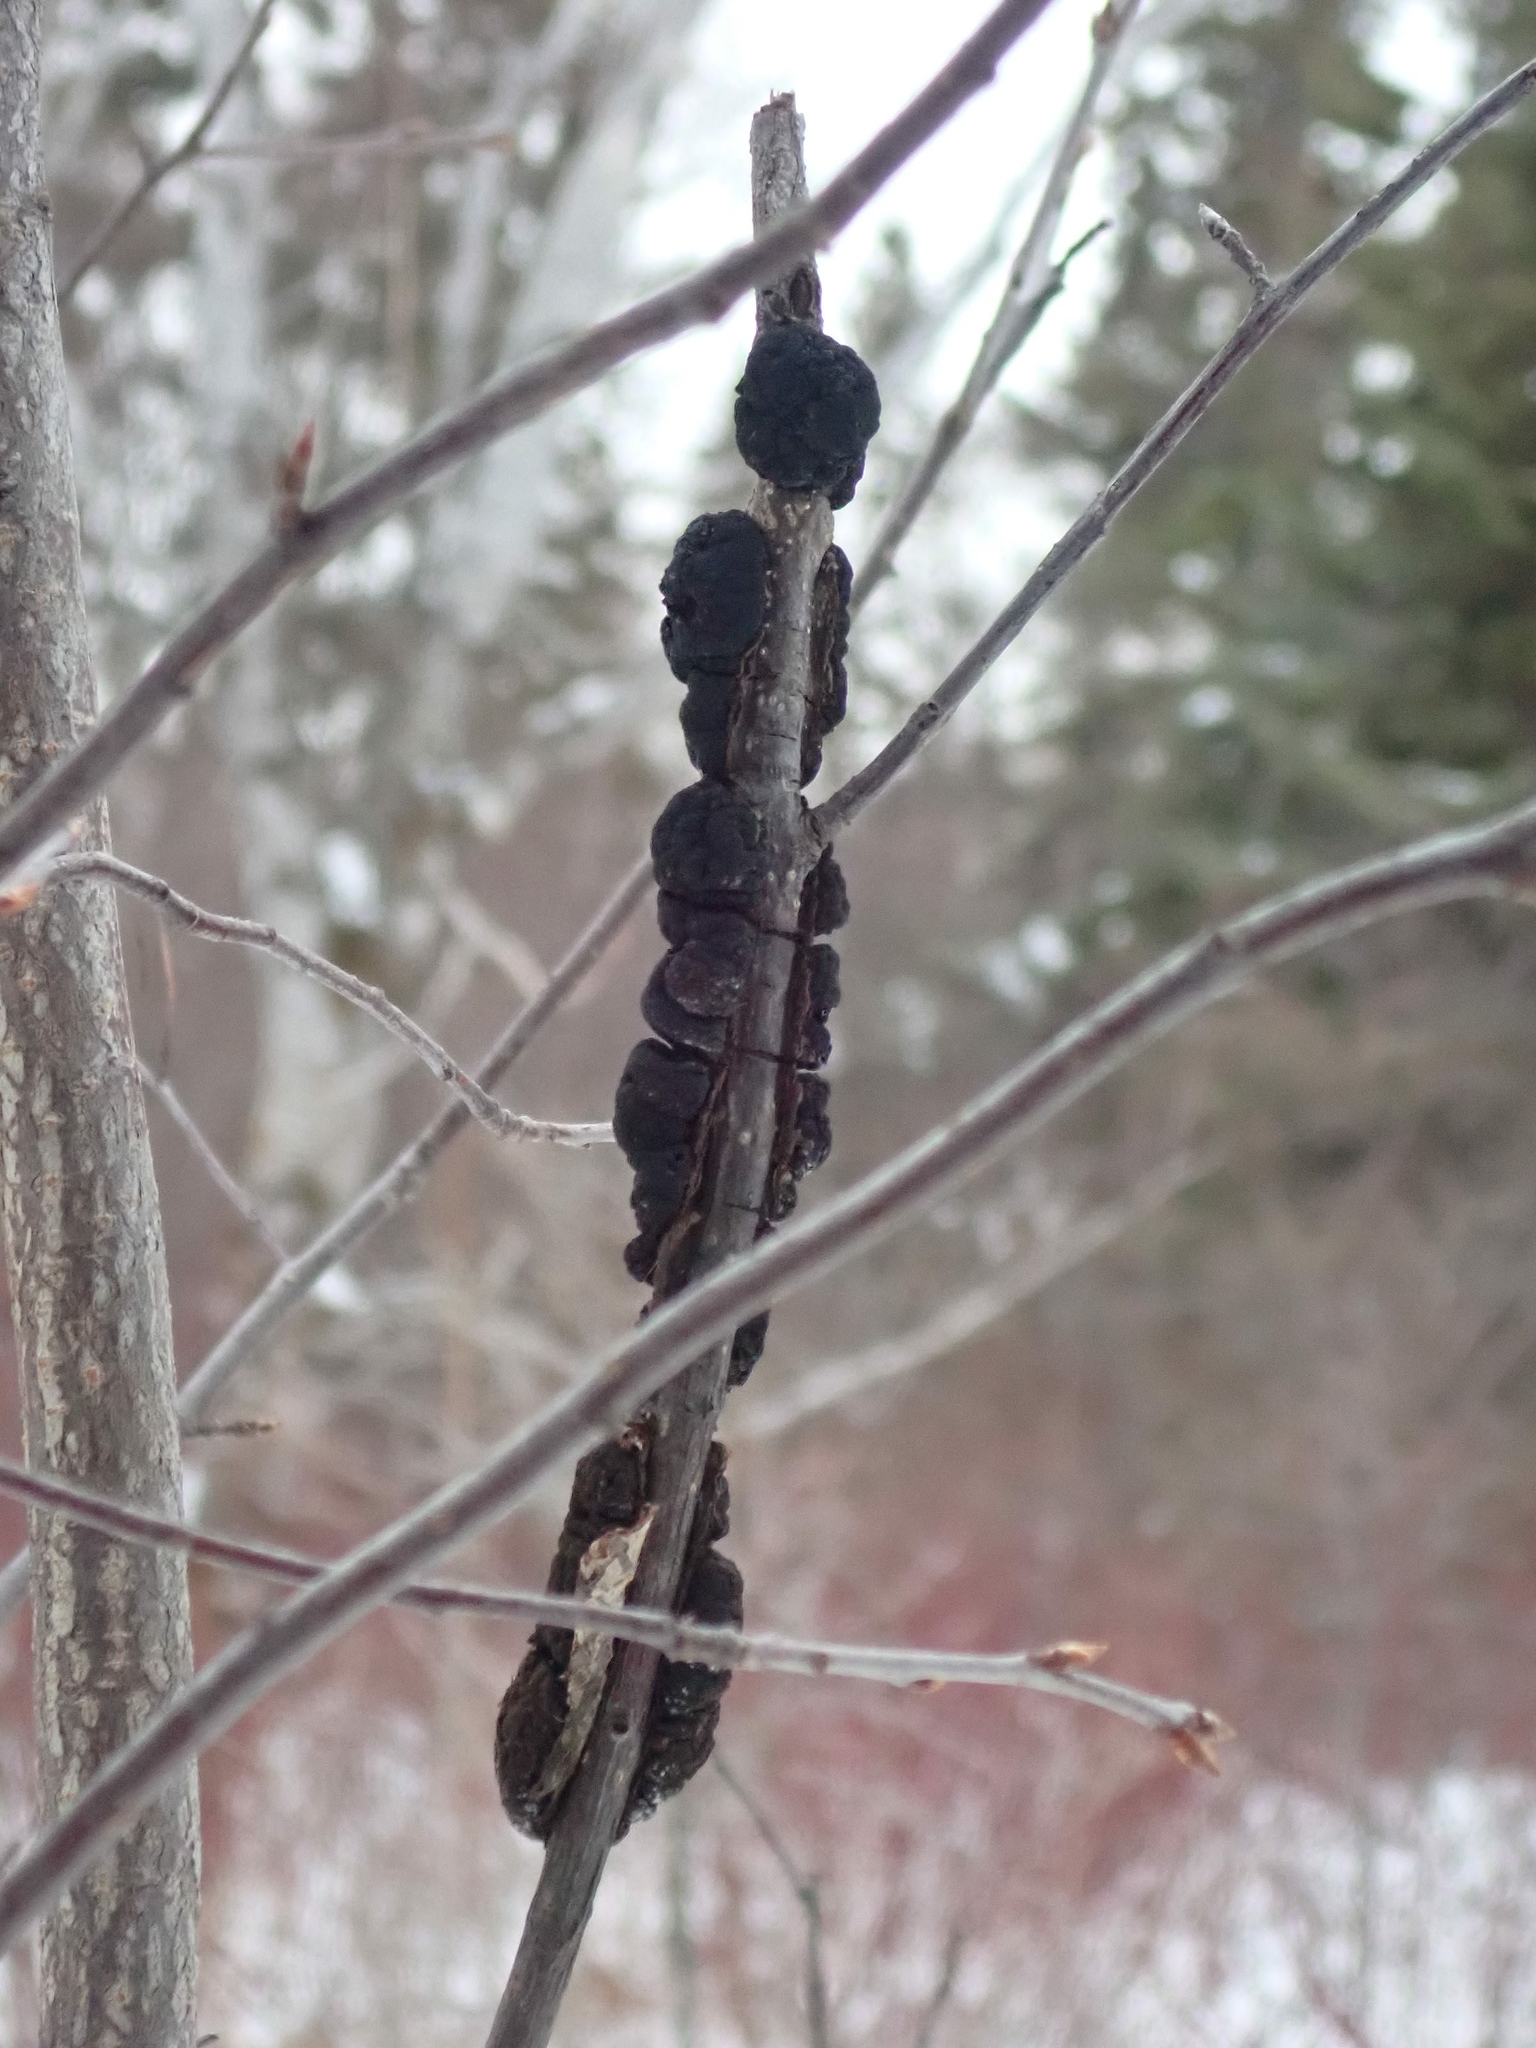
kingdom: Fungi
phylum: Ascomycota
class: Dothideomycetes
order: Venturiales
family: Venturiaceae
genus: Apiosporina
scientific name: Apiosporina morbosa
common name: Black knot
